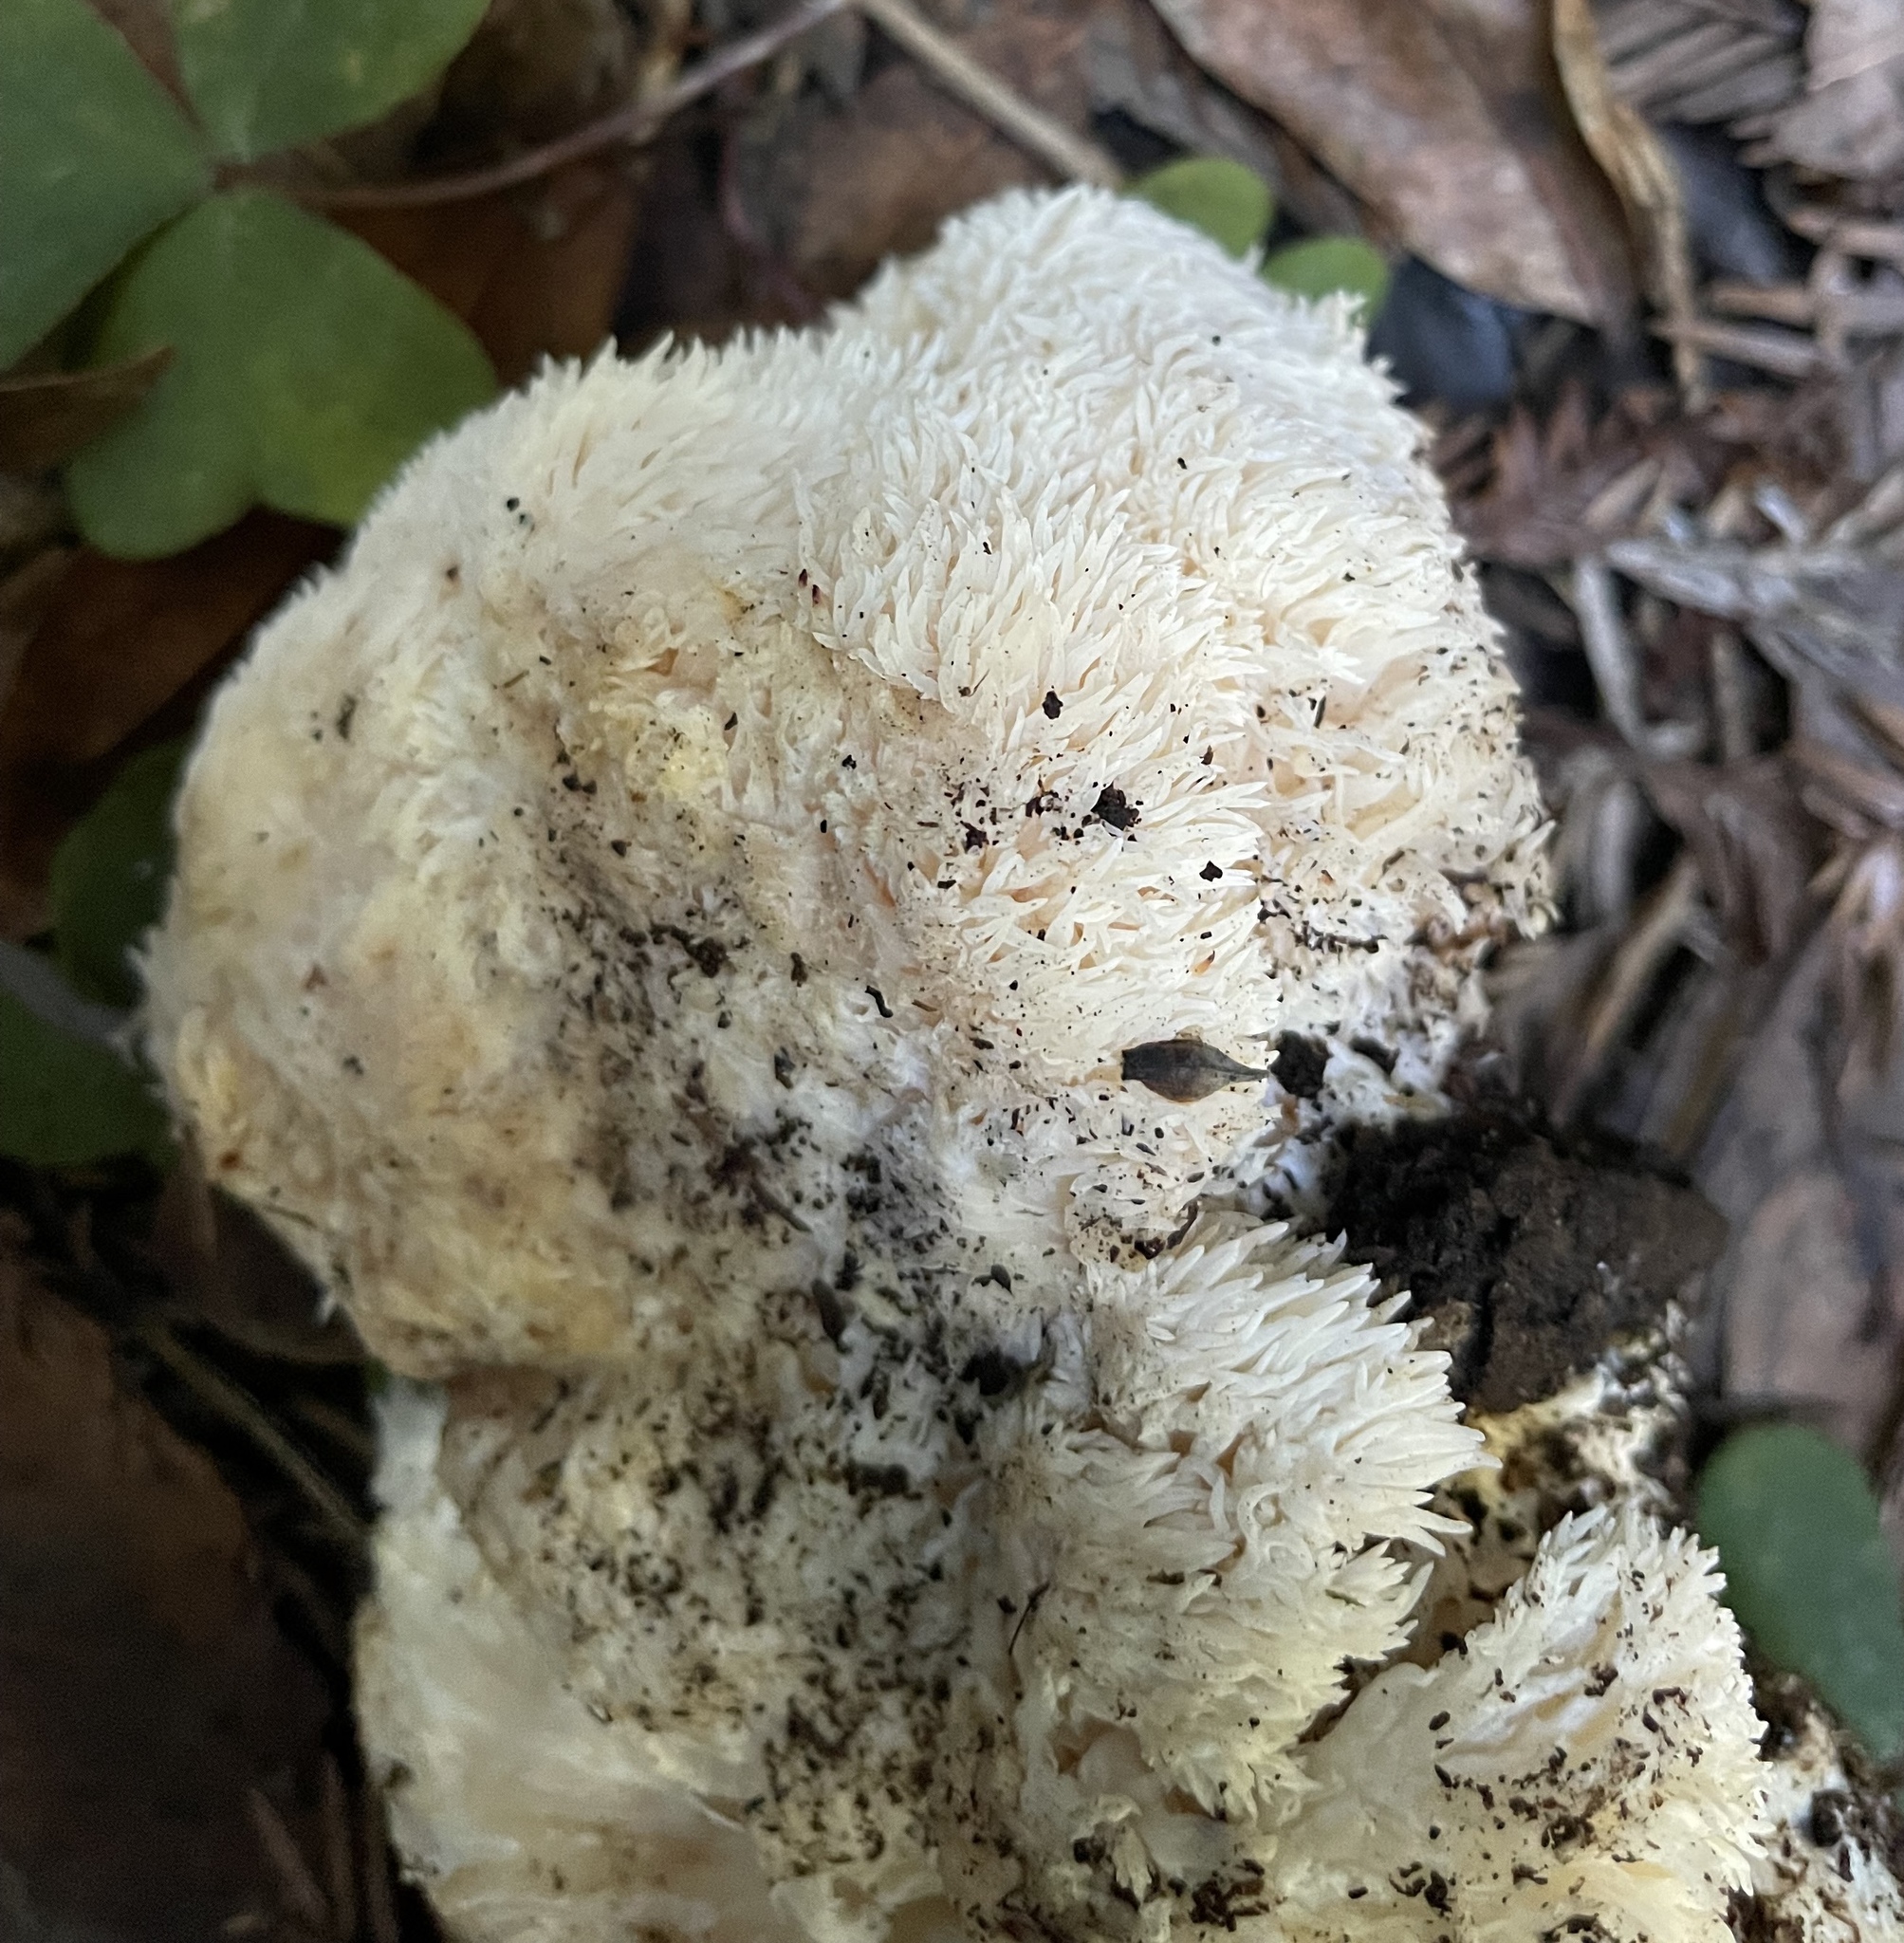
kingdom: Fungi
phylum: Basidiomycota
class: Agaricomycetes
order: Russulales
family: Hericiaceae
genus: Hericium
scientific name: Hericium erinaceus
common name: Bearded tooth
